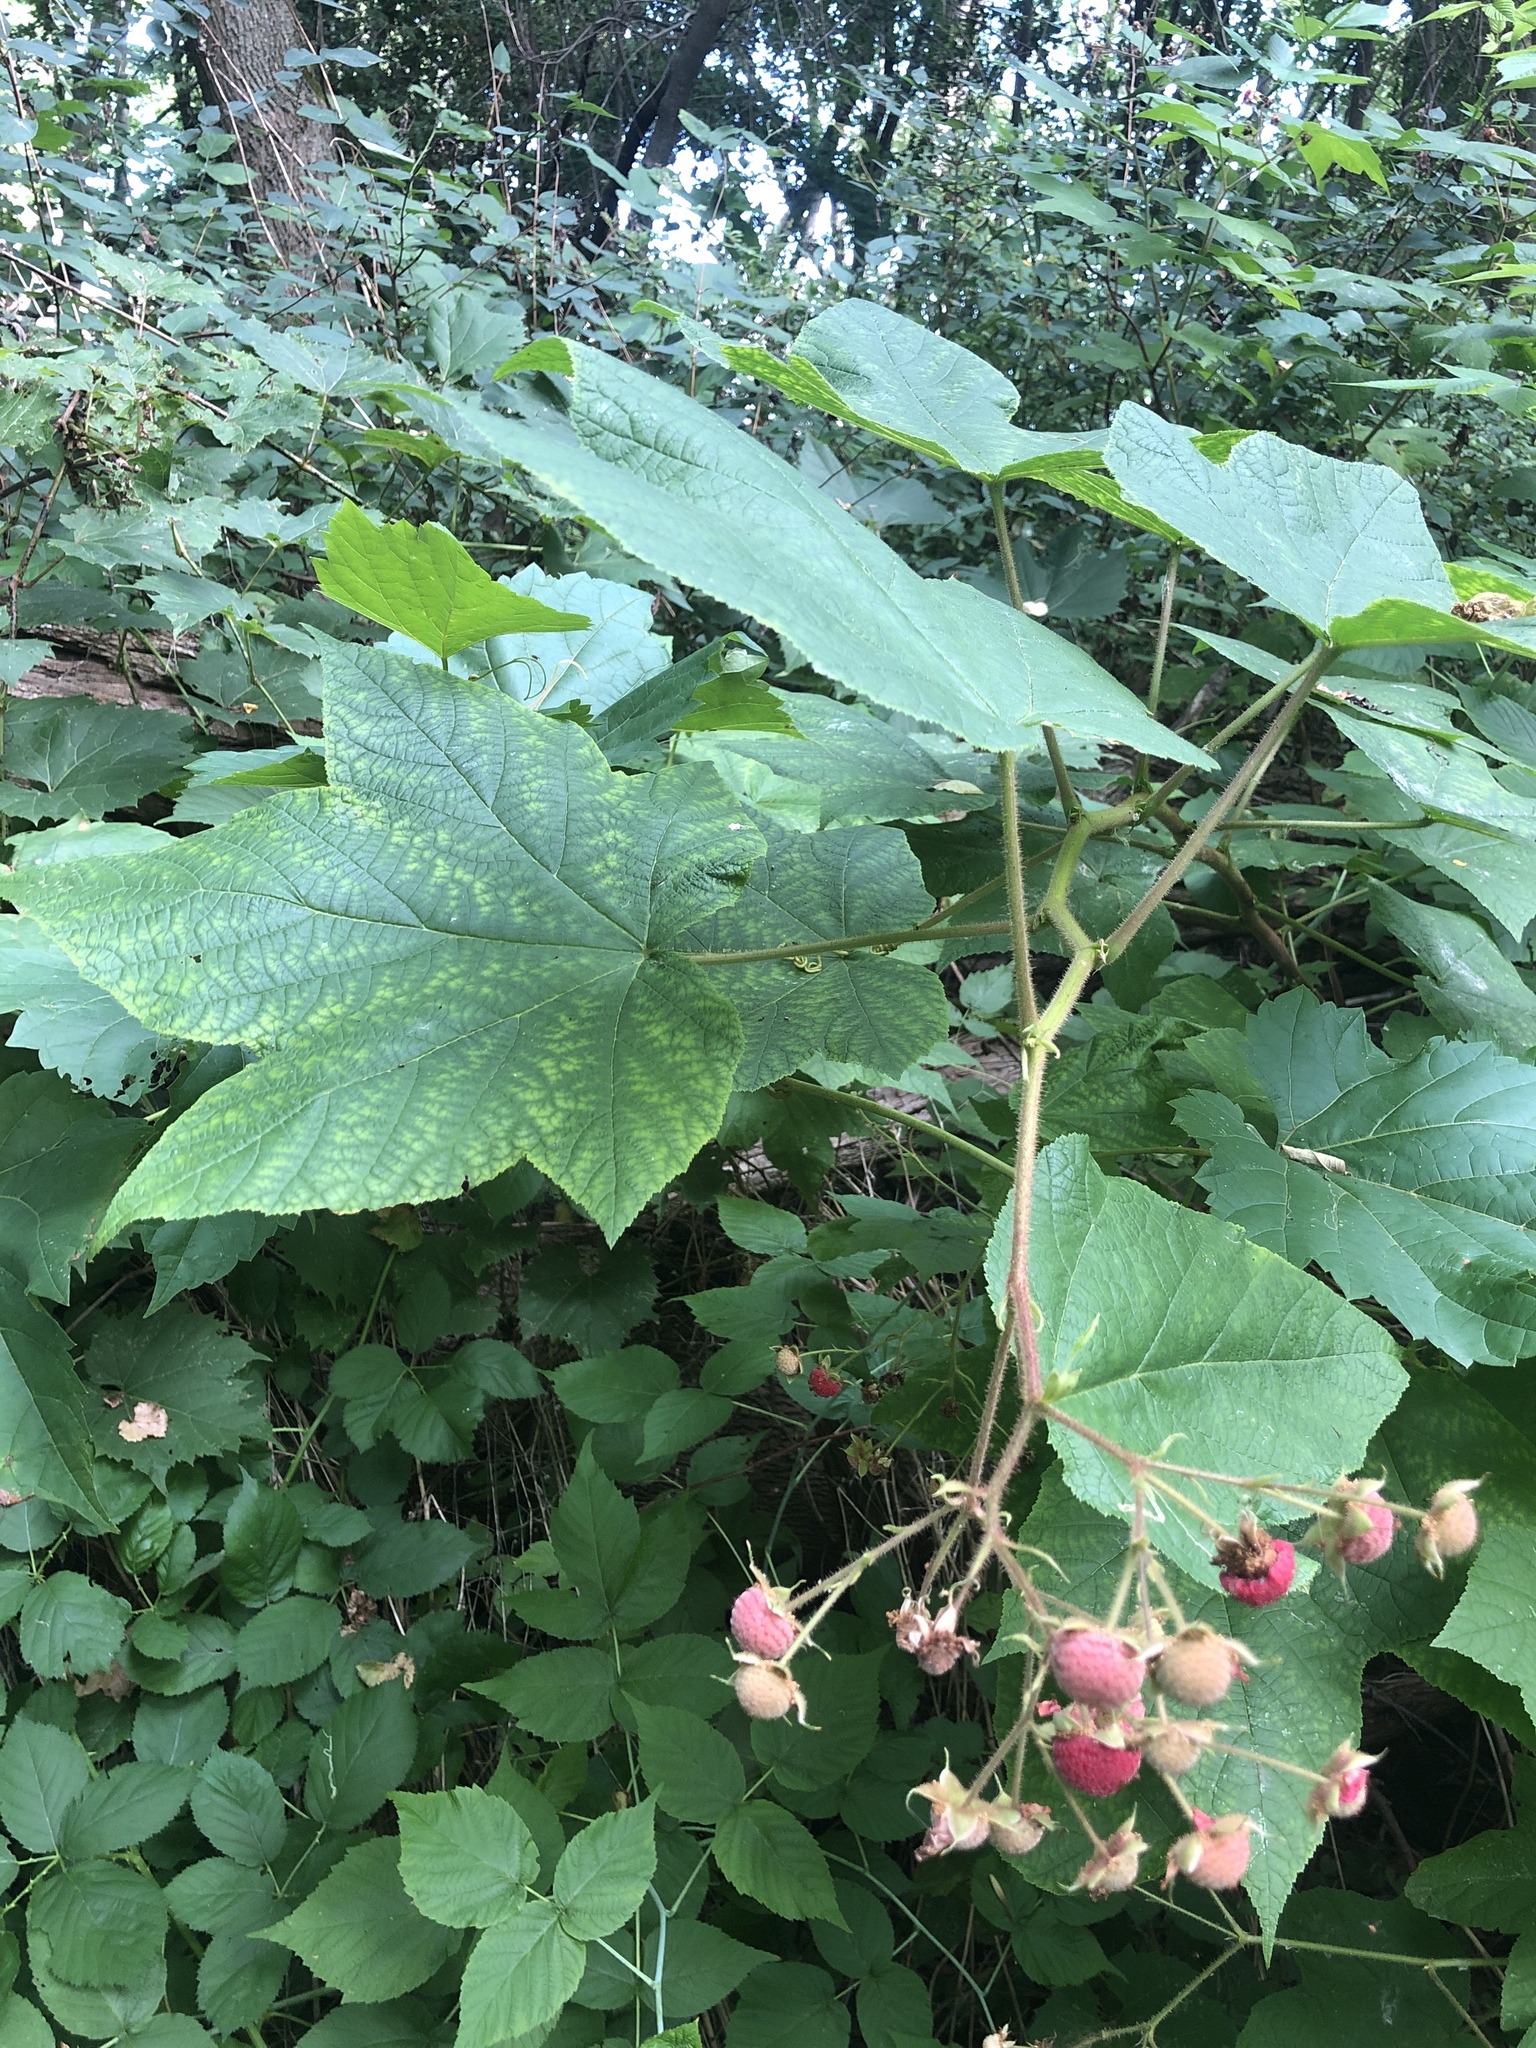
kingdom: Plantae
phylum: Tracheophyta
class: Magnoliopsida
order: Rosales
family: Rosaceae
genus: Rubus
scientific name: Rubus odoratus
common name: Purple-flowered raspberry
